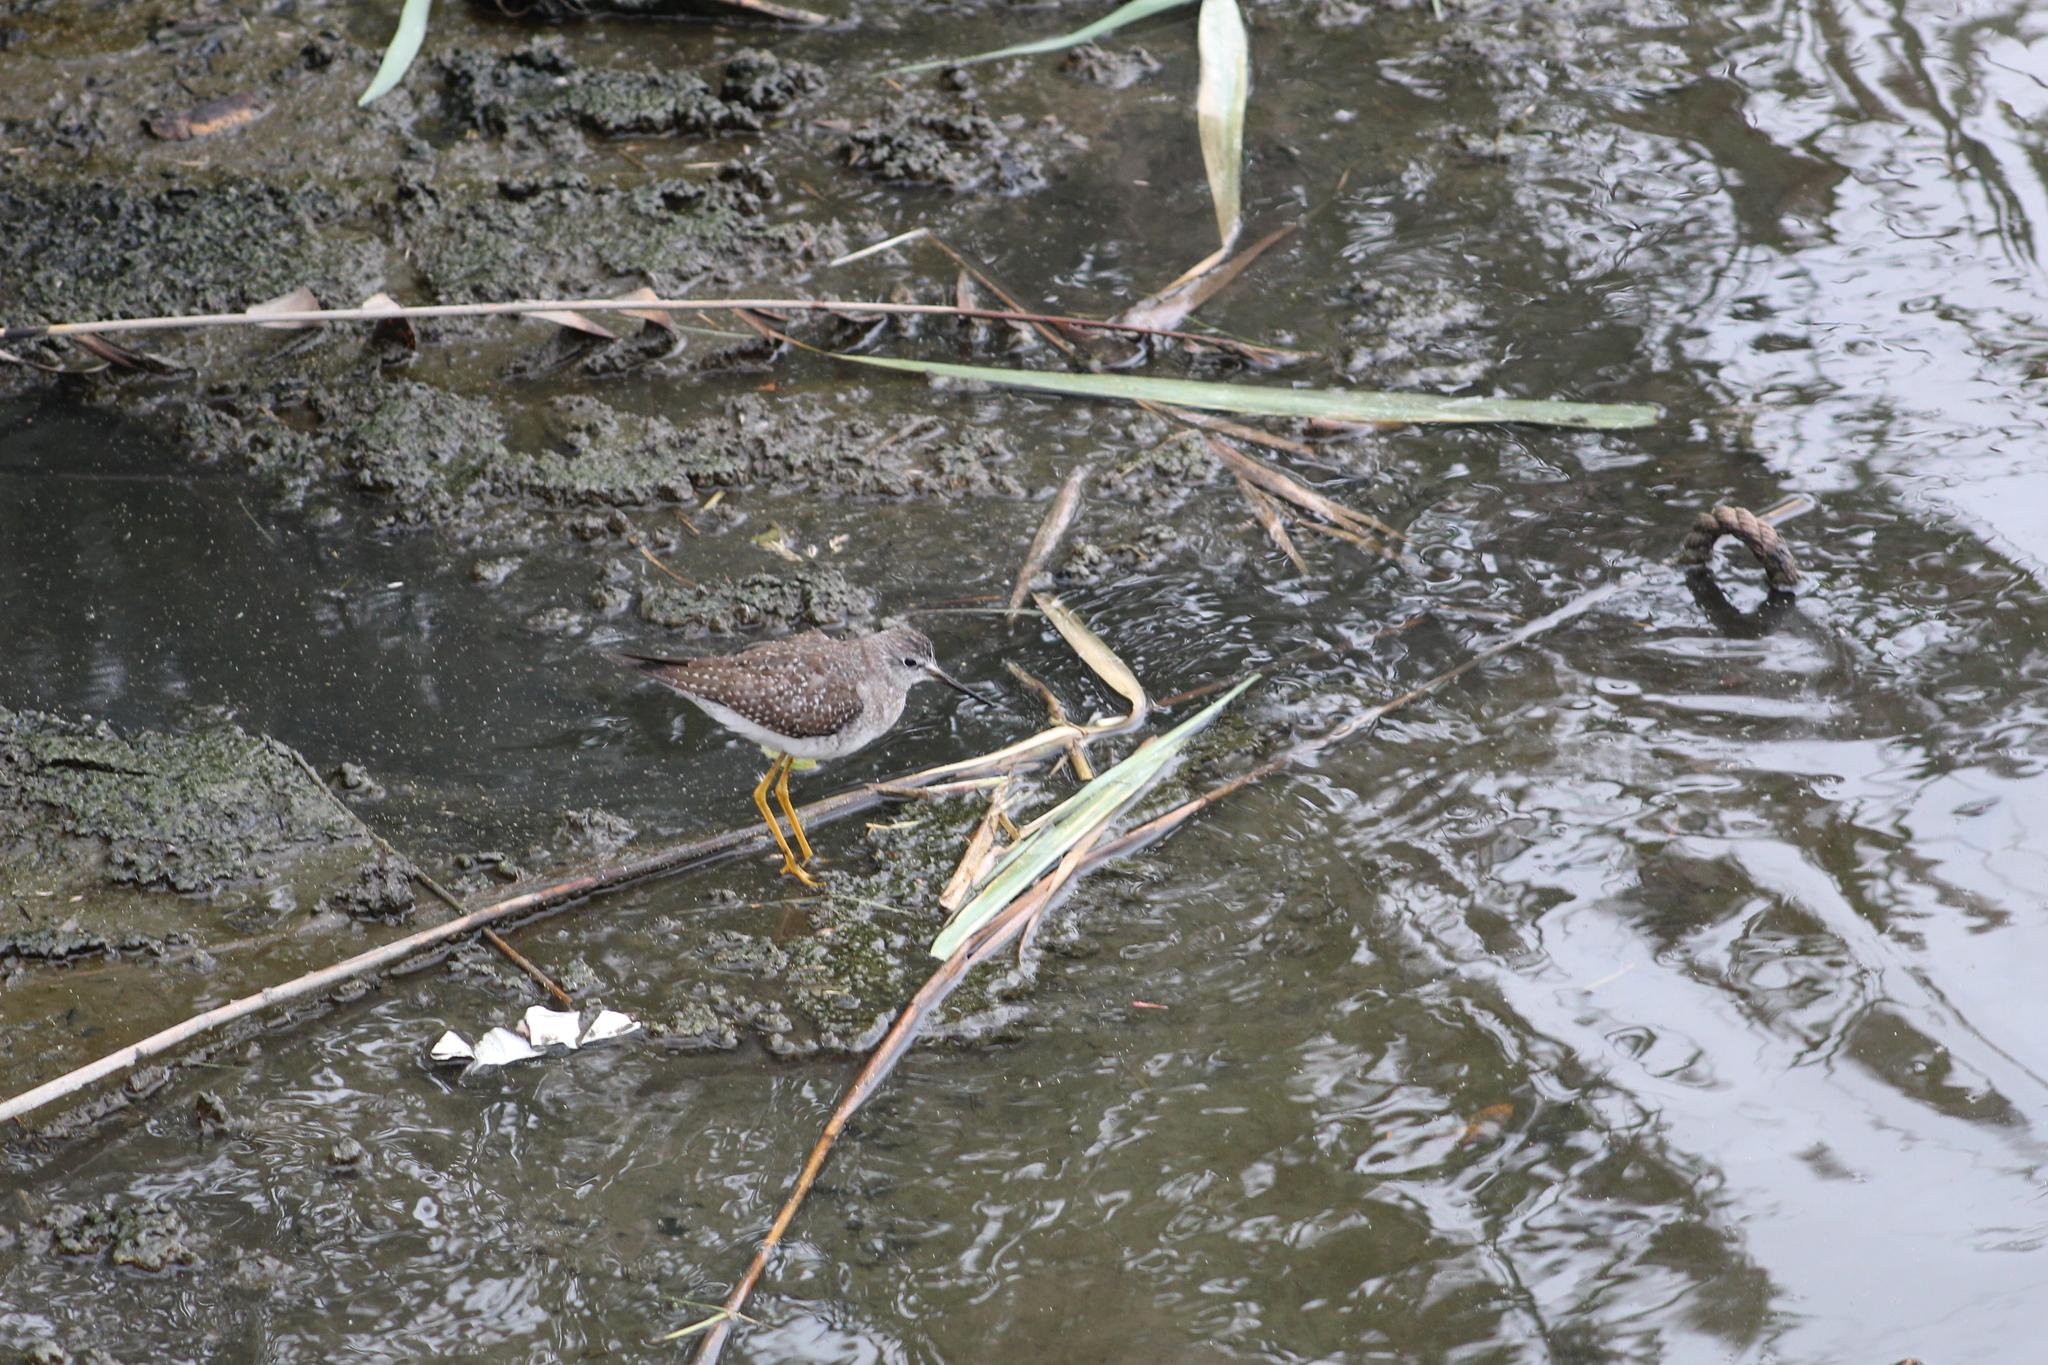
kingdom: Animalia
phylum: Chordata
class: Aves
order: Charadriiformes
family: Scolopacidae
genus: Tringa
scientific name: Tringa flavipes
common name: Lesser yellowlegs
